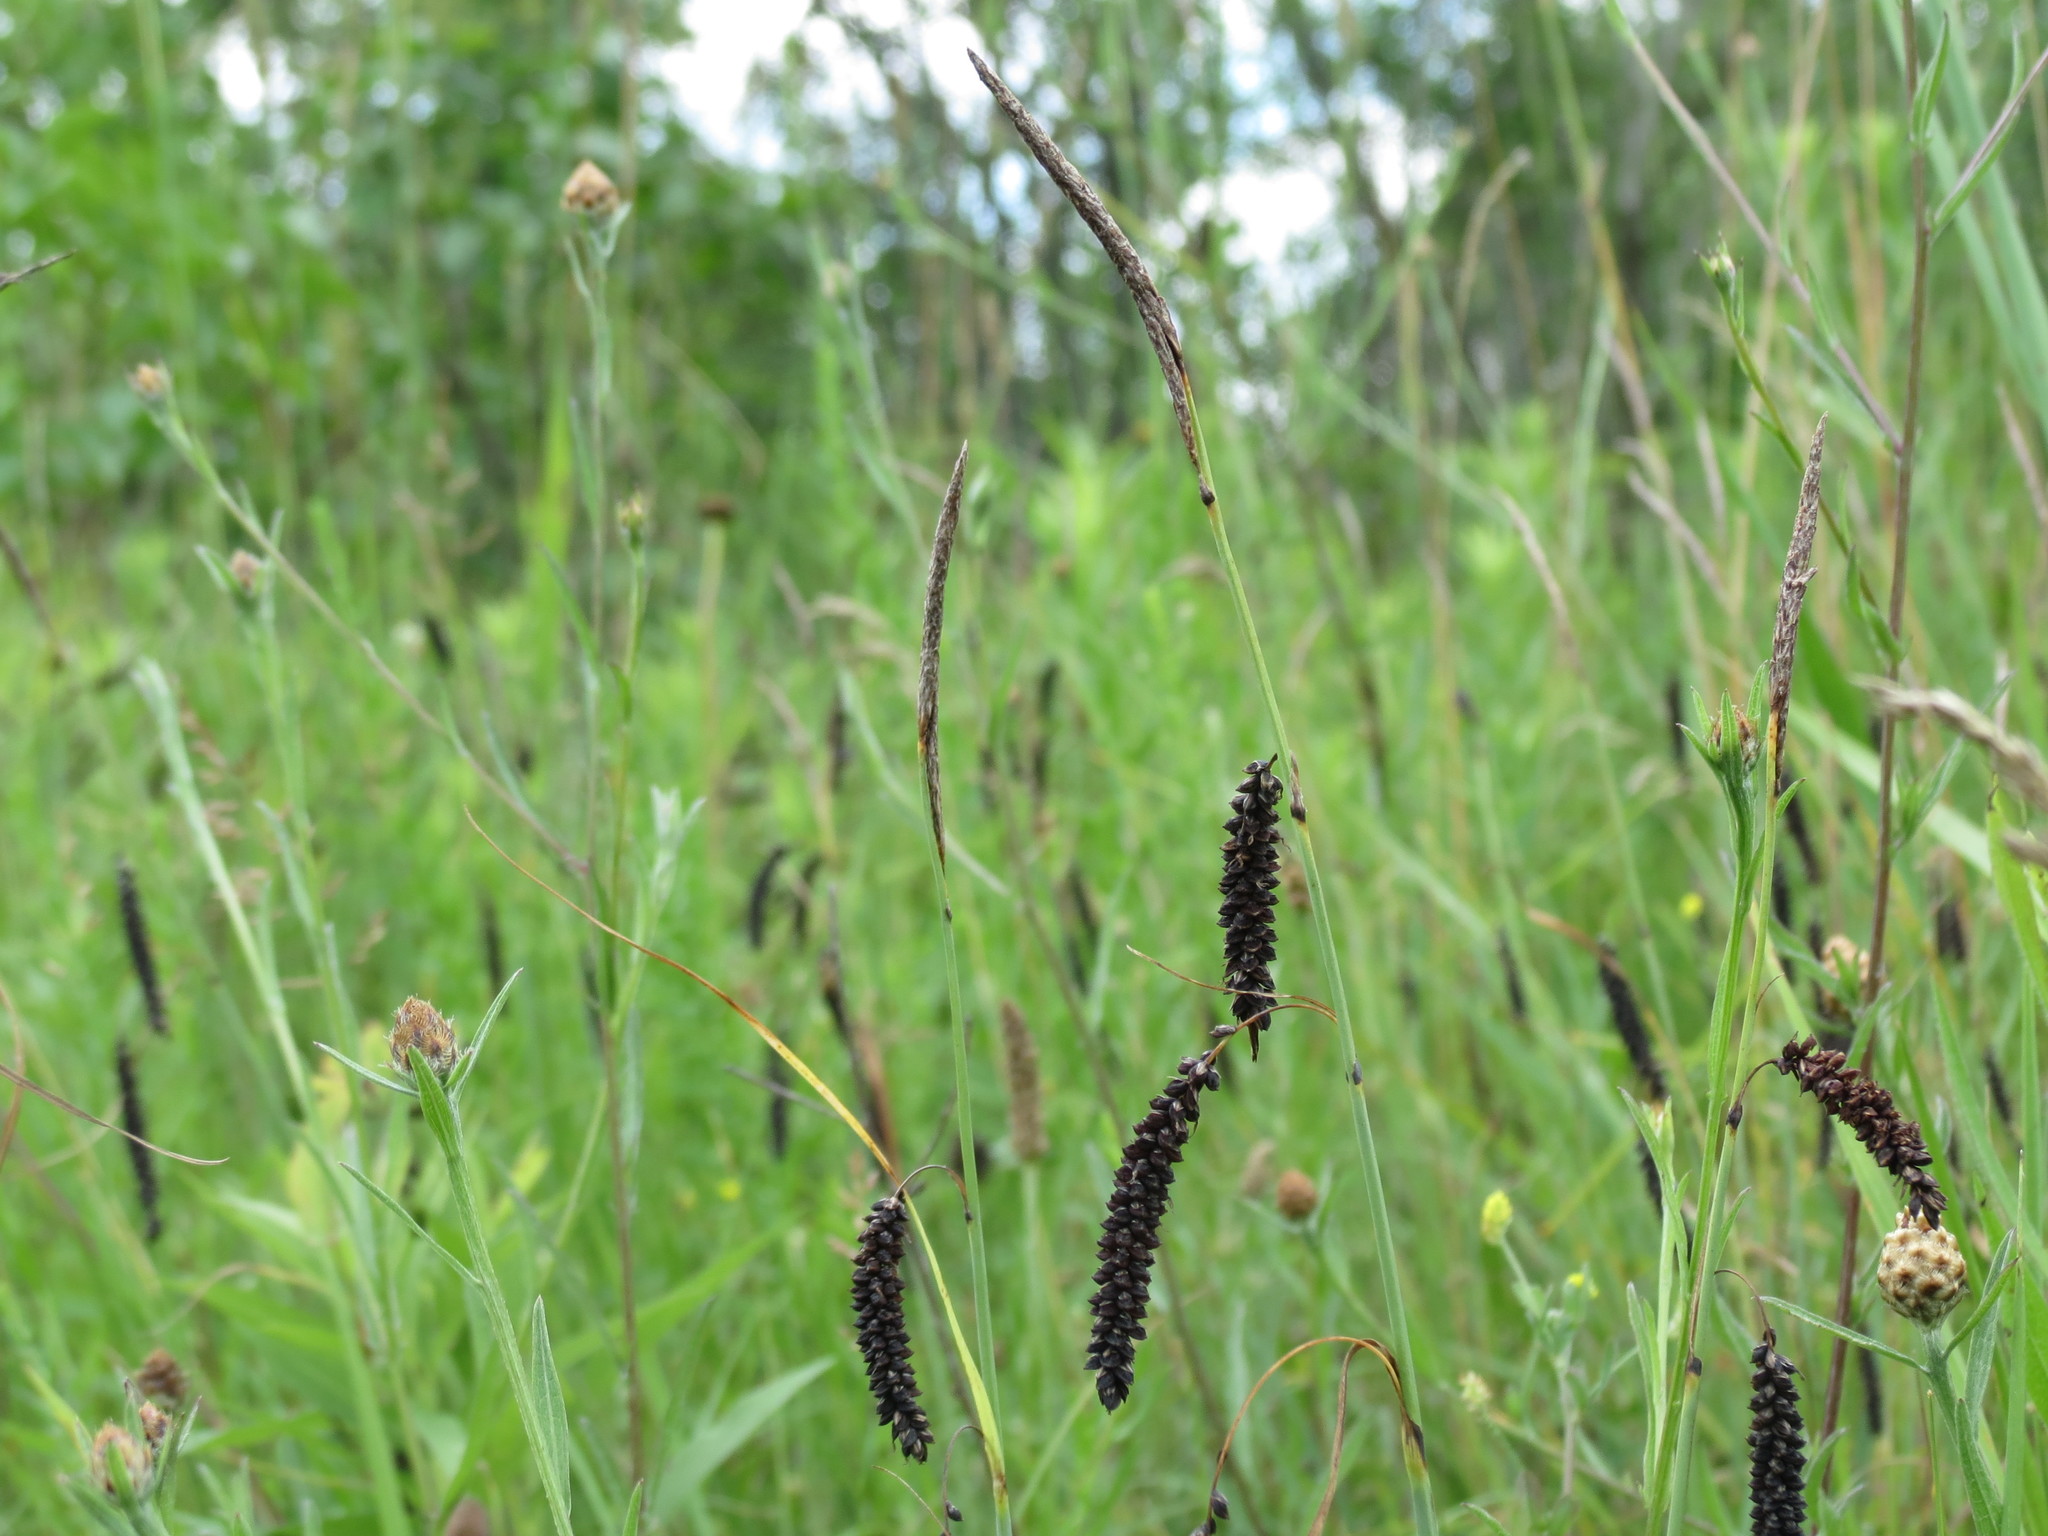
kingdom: Plantae
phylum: Tracheophyta
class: Liliopsida
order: Poales
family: Cyperaceae
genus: Carex
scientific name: Carex flacca
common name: Glaucous sedge
